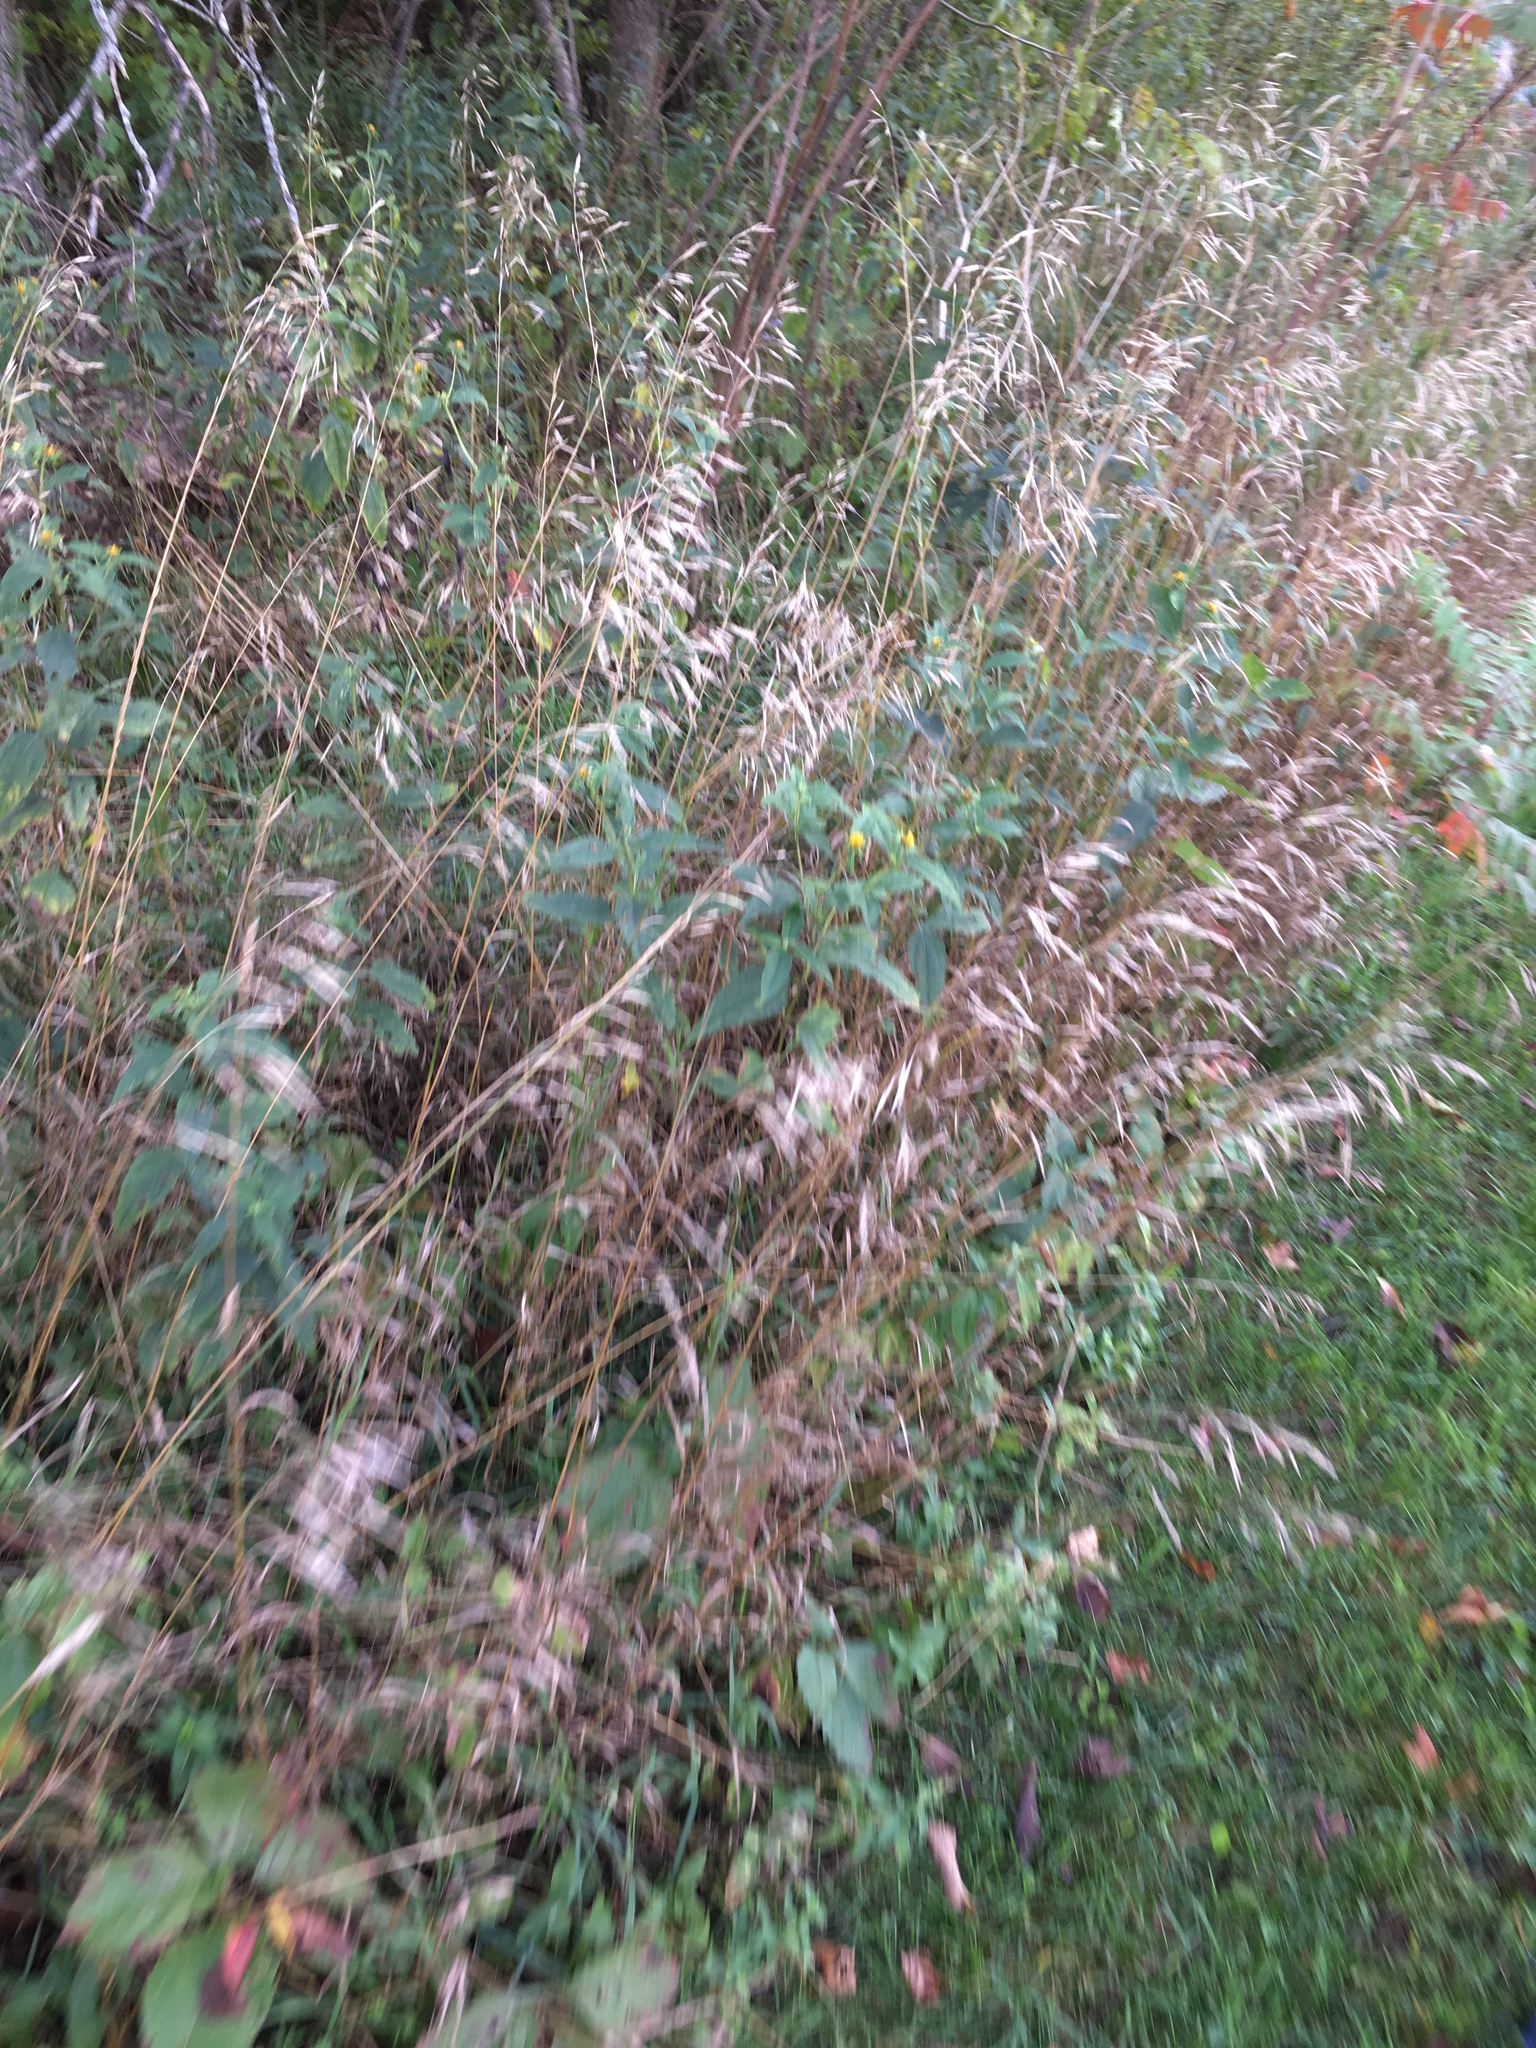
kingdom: Plantae
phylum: Tracheophyta
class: Liliopsida
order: Poales
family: Poaceae
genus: Bromus
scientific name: Bromus inermis
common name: Smooth brome
